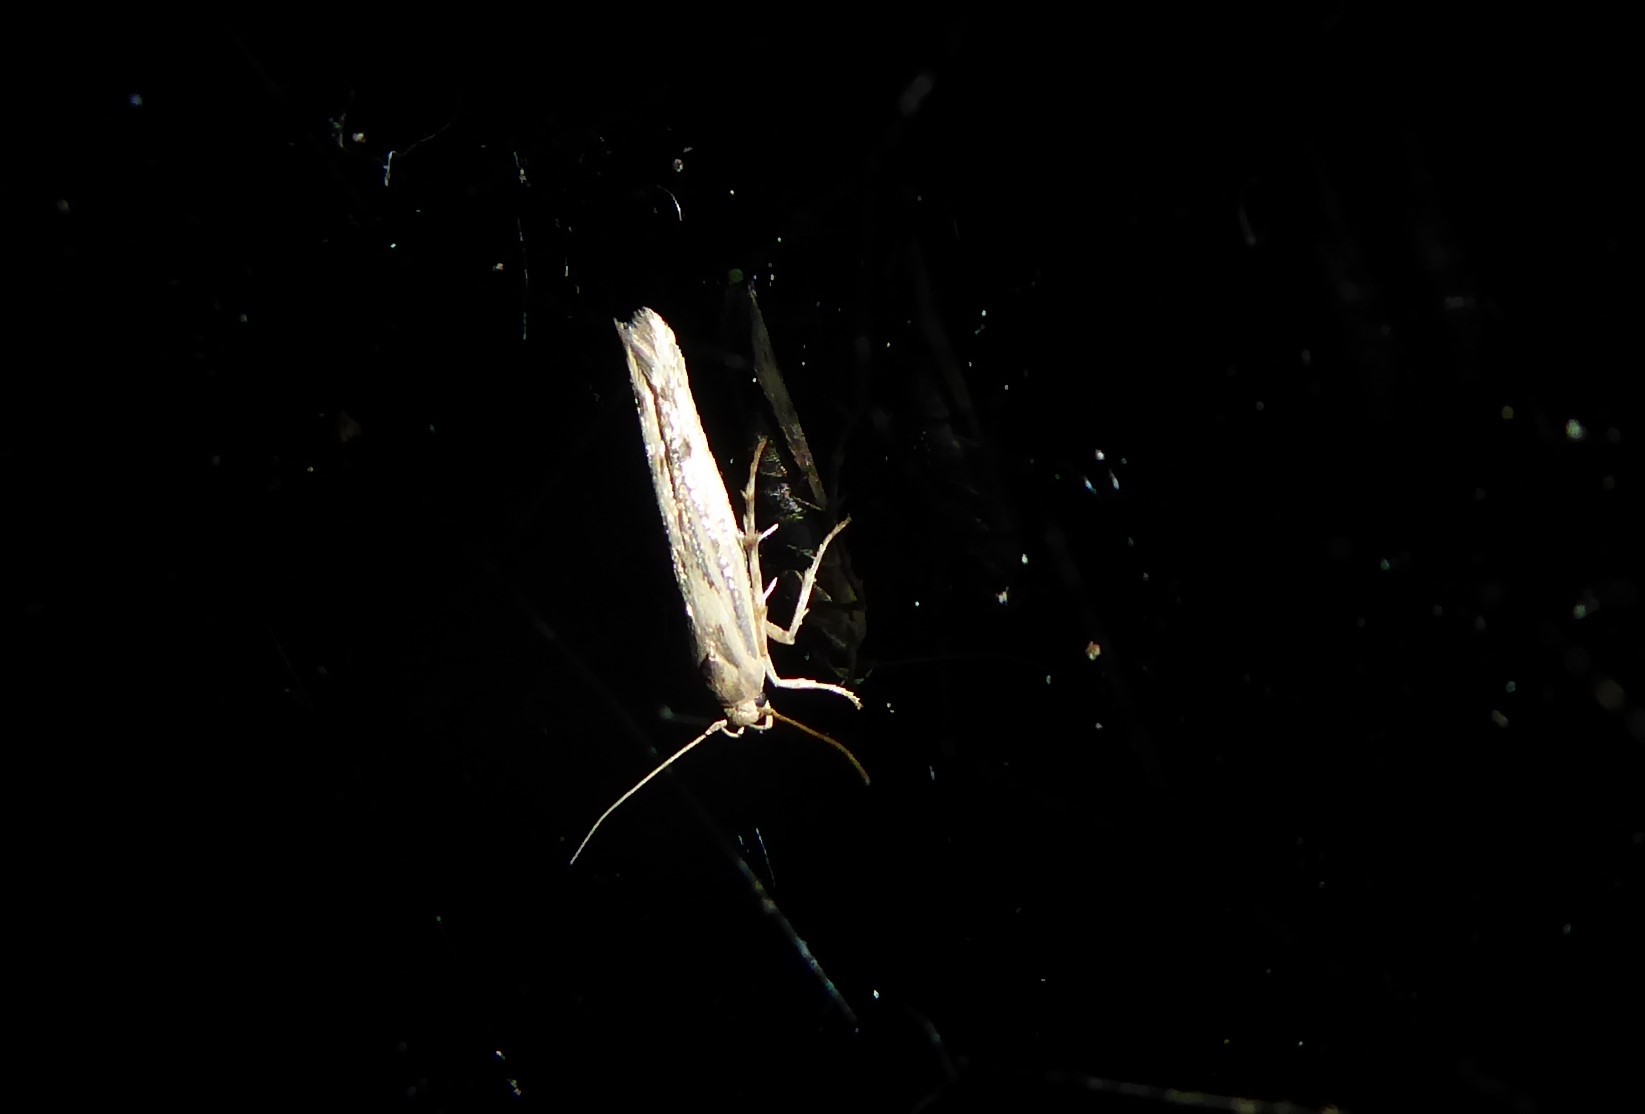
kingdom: Animalia
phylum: Arthropoda
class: Insecta
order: Lepidoptera
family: Stathmopodidae
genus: Stathmopoda
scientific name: Stathmopoda plumbiflua
